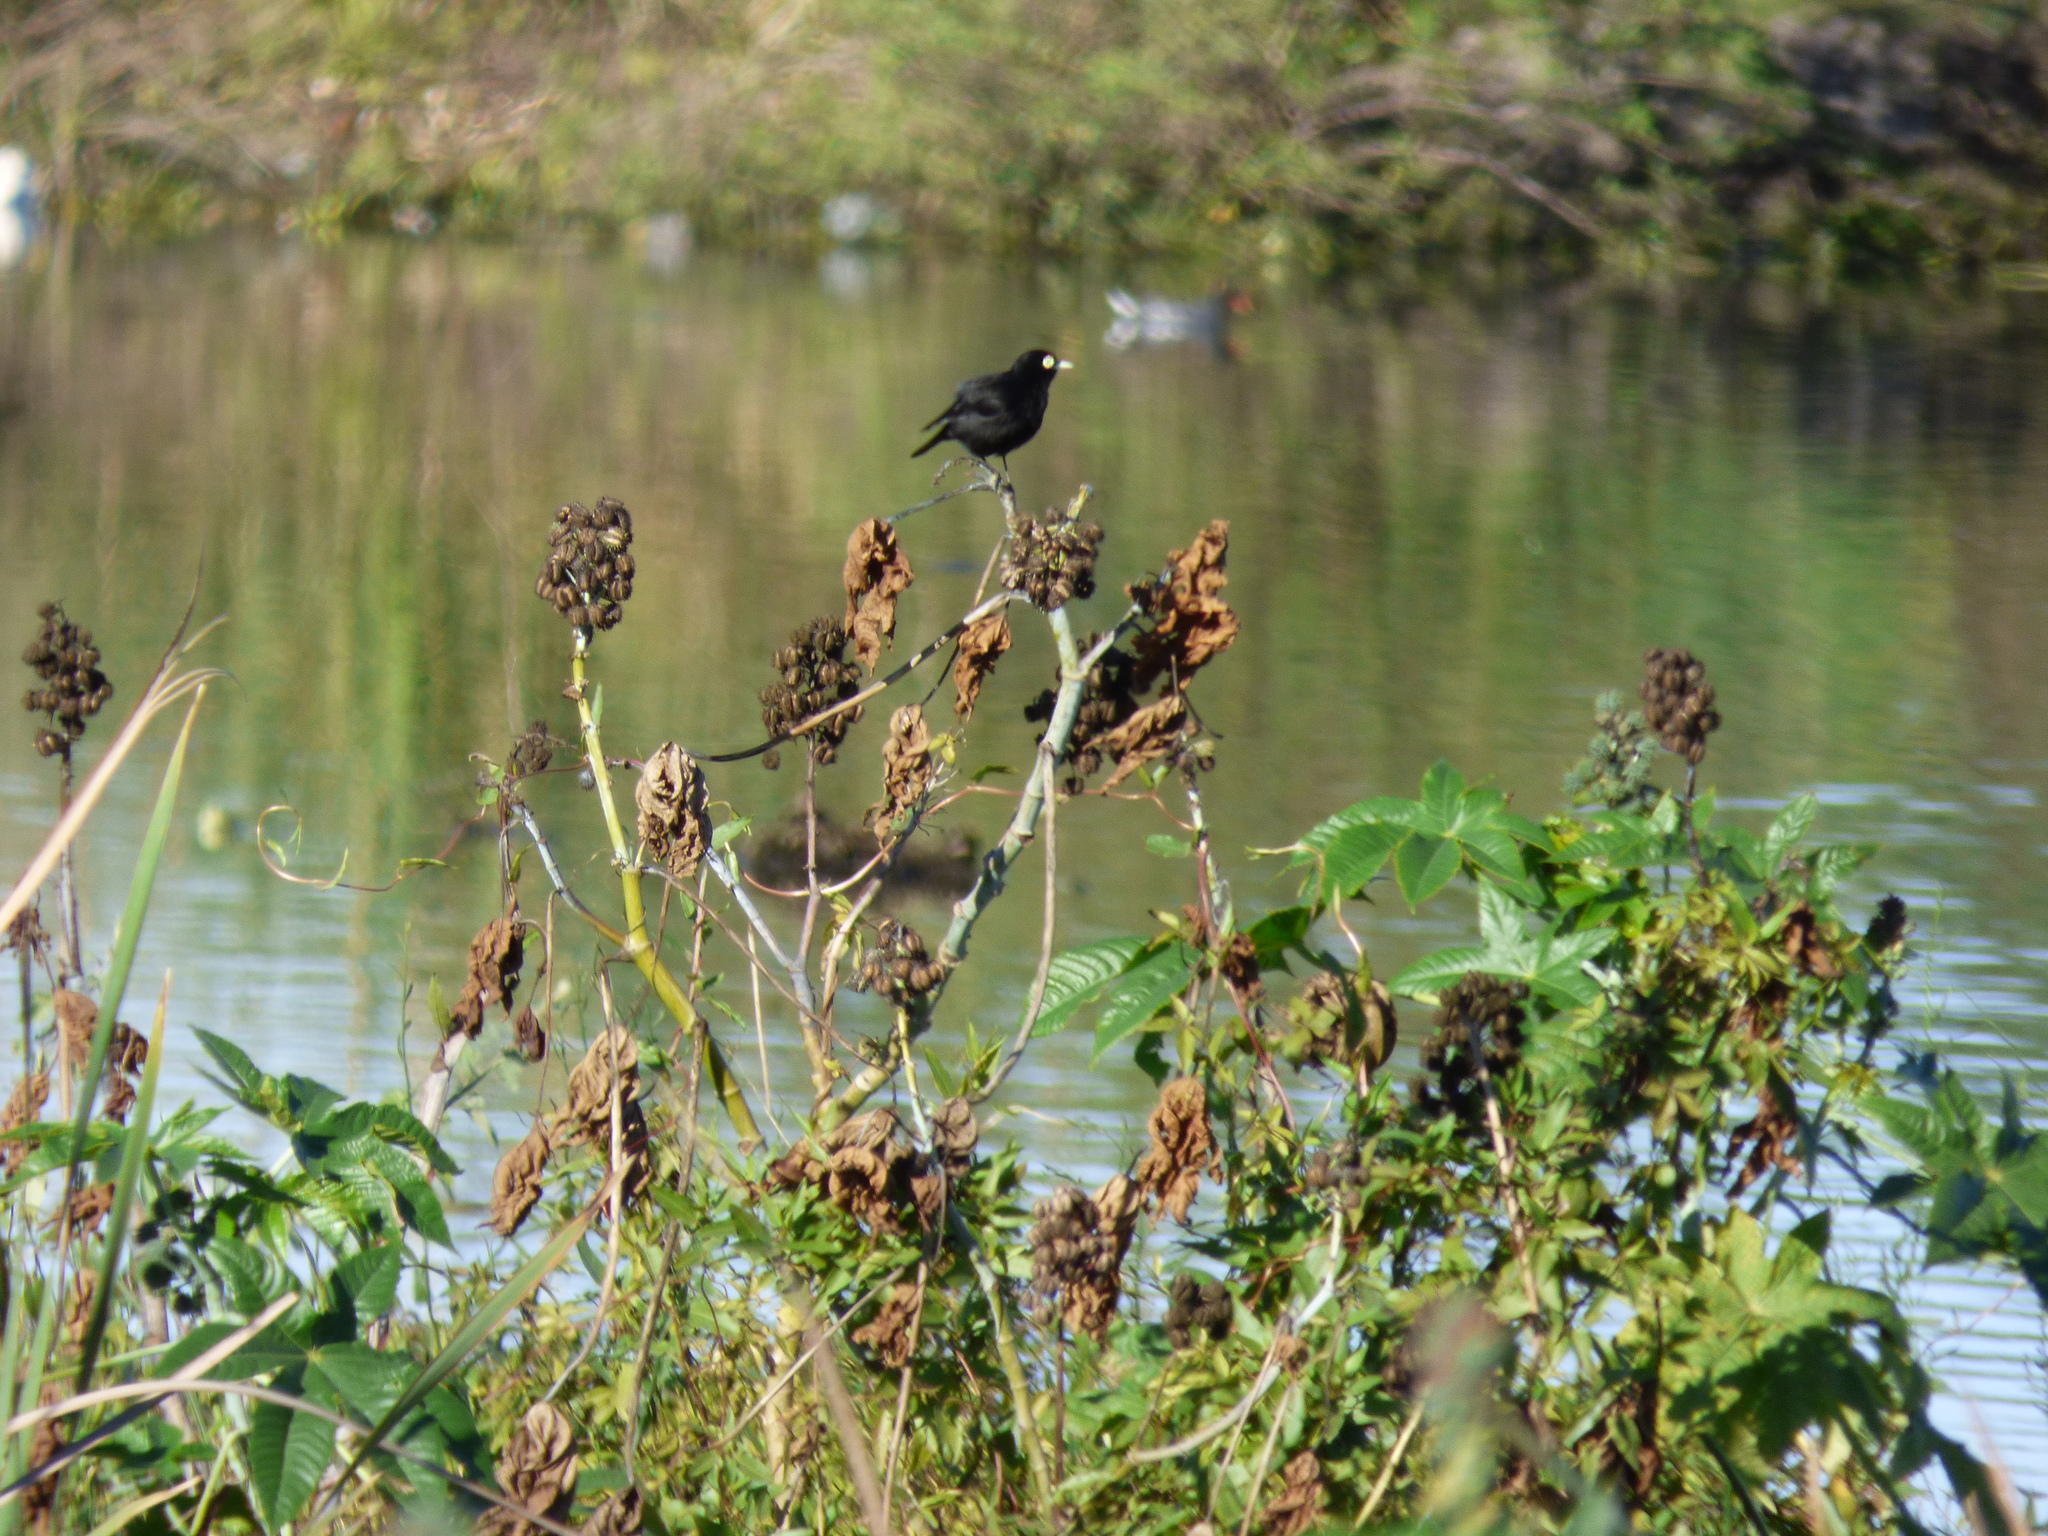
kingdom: Animalia
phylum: Chordata
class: Aves
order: Passeriformes
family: Tyrannidae
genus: Hymenops
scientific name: Hymenops perspicillatus
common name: Spectacled tyrant
